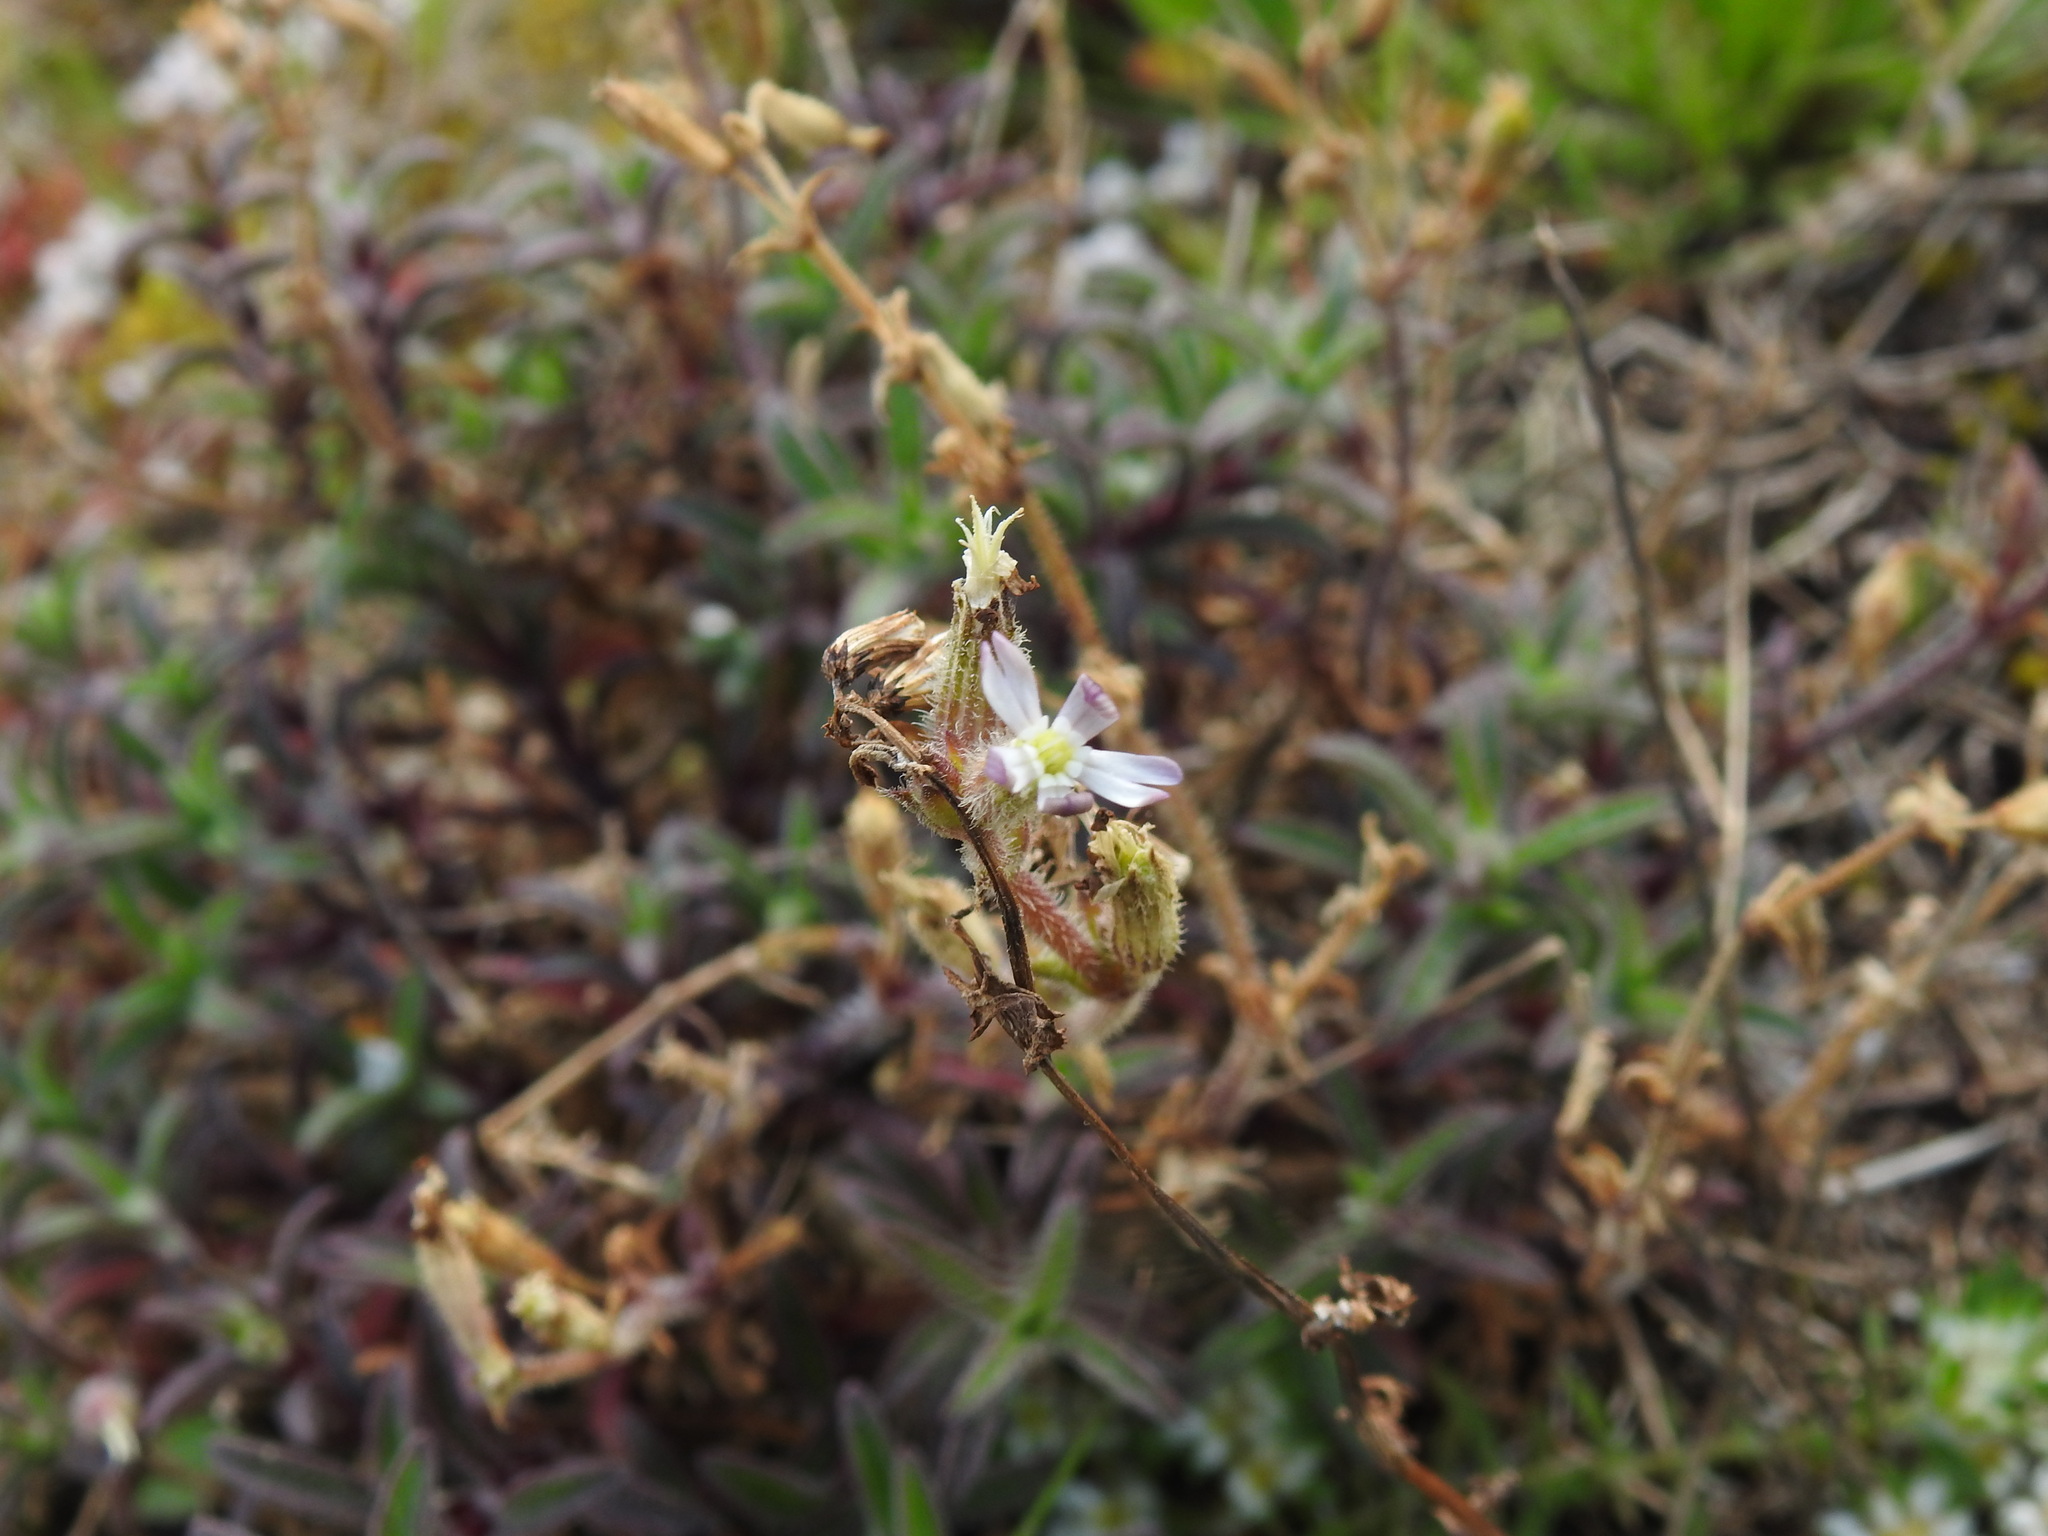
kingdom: Plantae
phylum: Tracheophyta
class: Magnoliopsida
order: Caryophyllales
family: Caryophyllaceae
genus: Silene
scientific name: Silene nicaeensis
